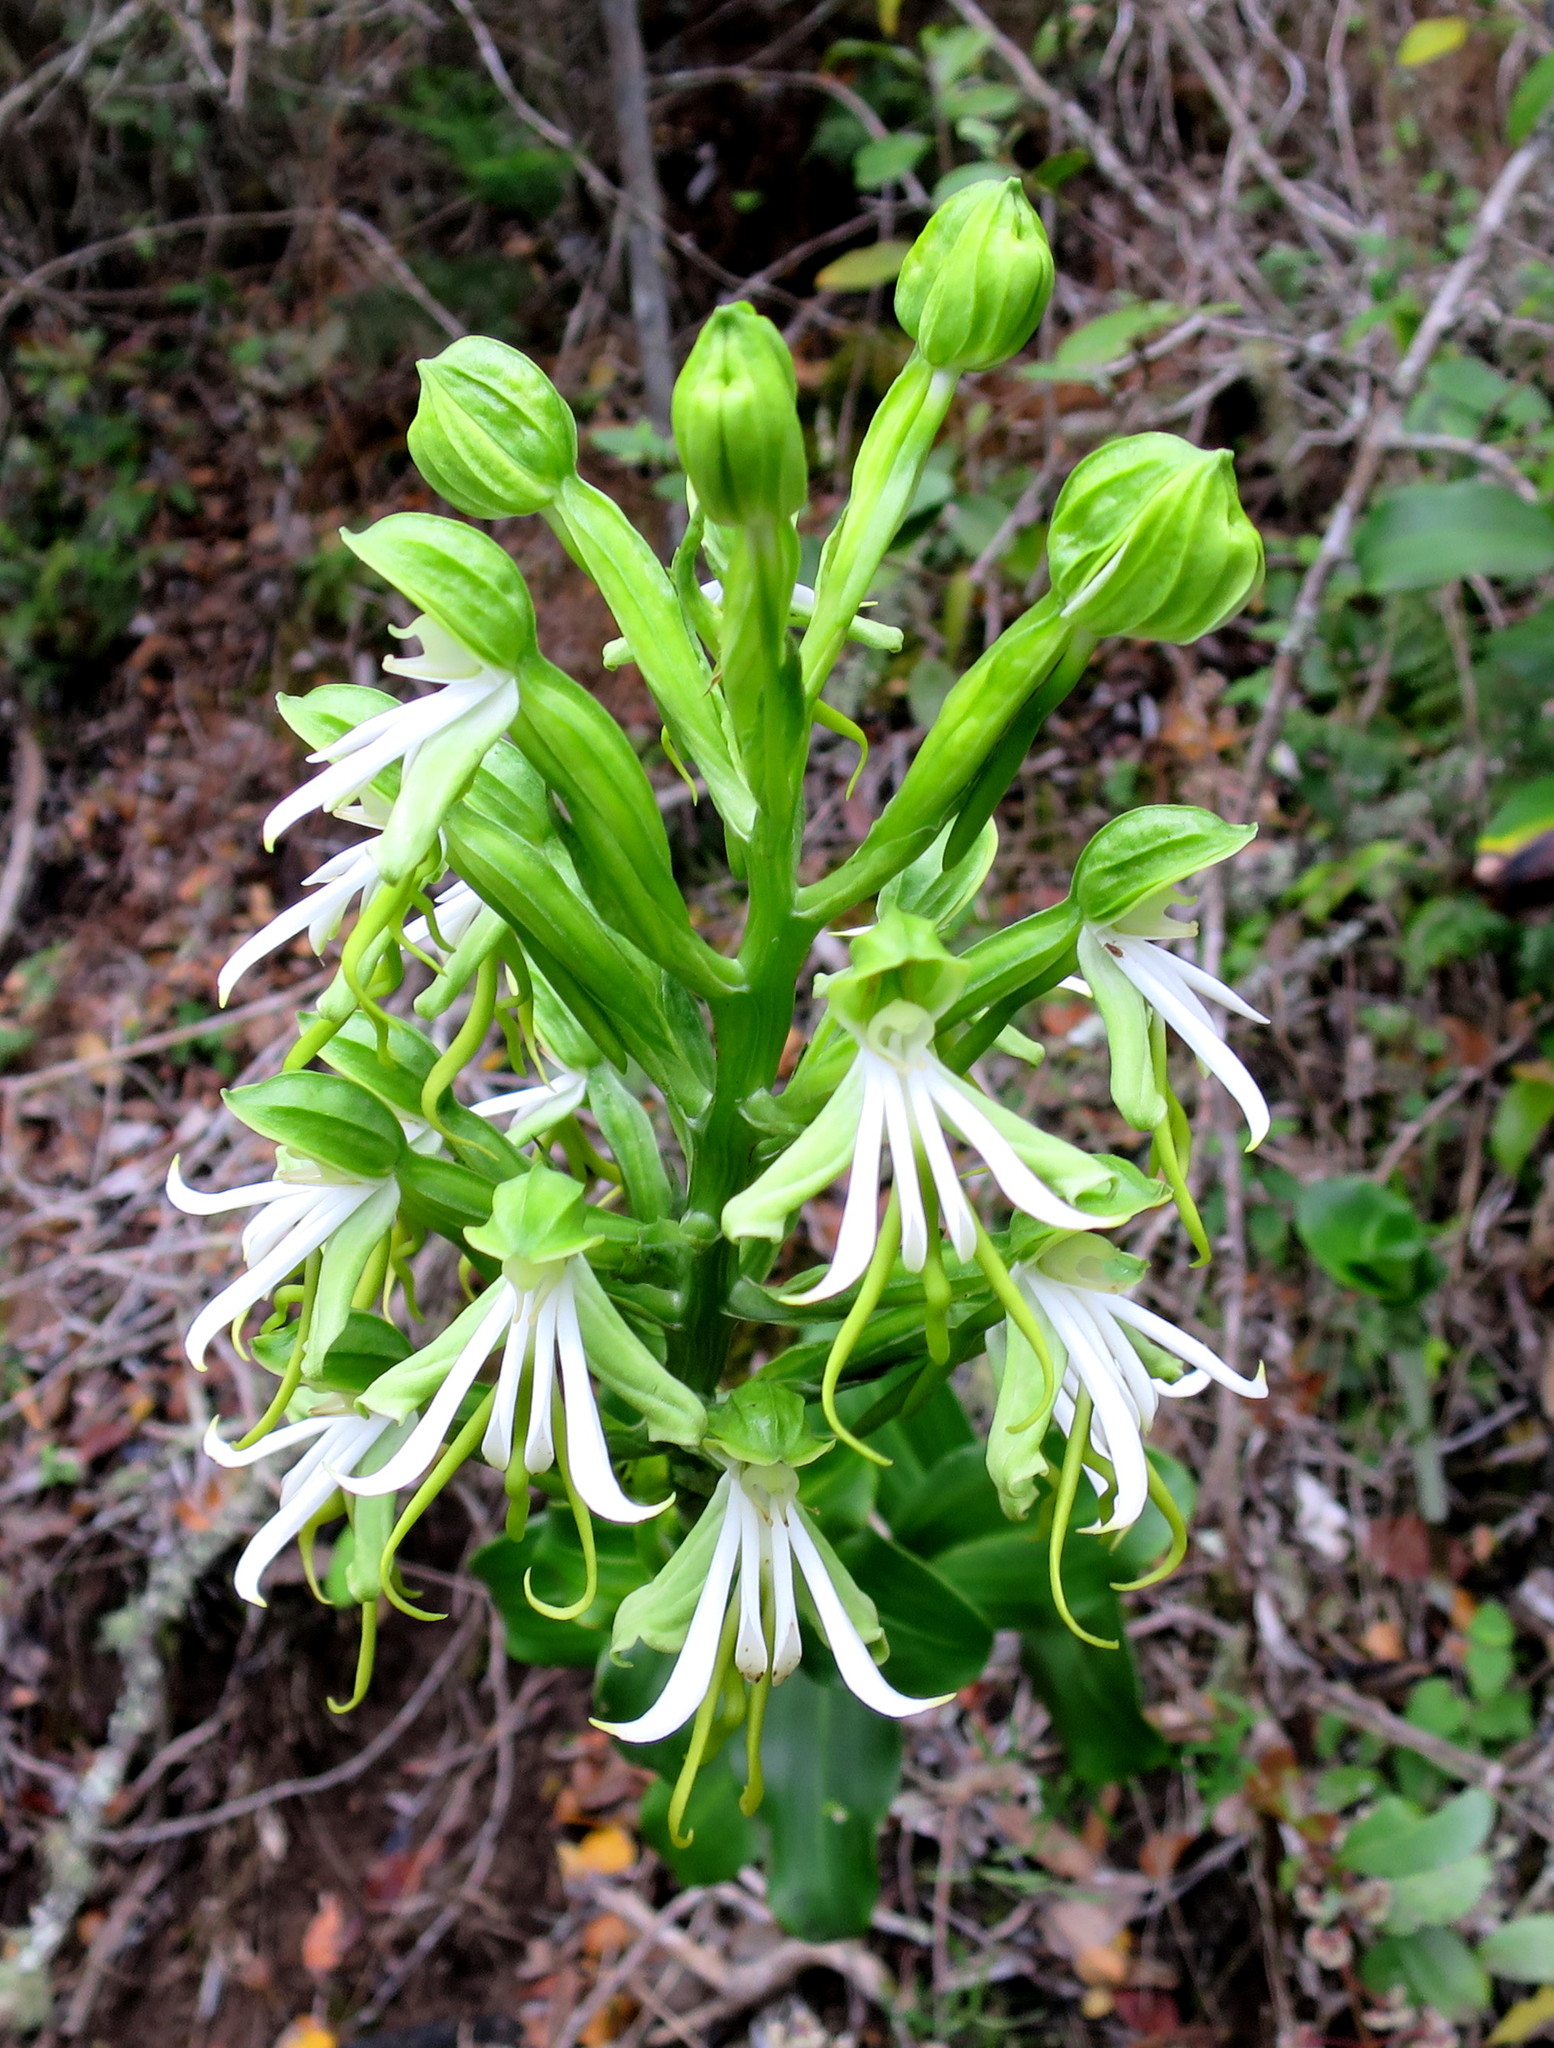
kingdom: Plantae
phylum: Tracheophyta
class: Liliopsida
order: Asparagales
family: Orchidaceae
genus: Bonatea
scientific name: Bonatea speciosa
